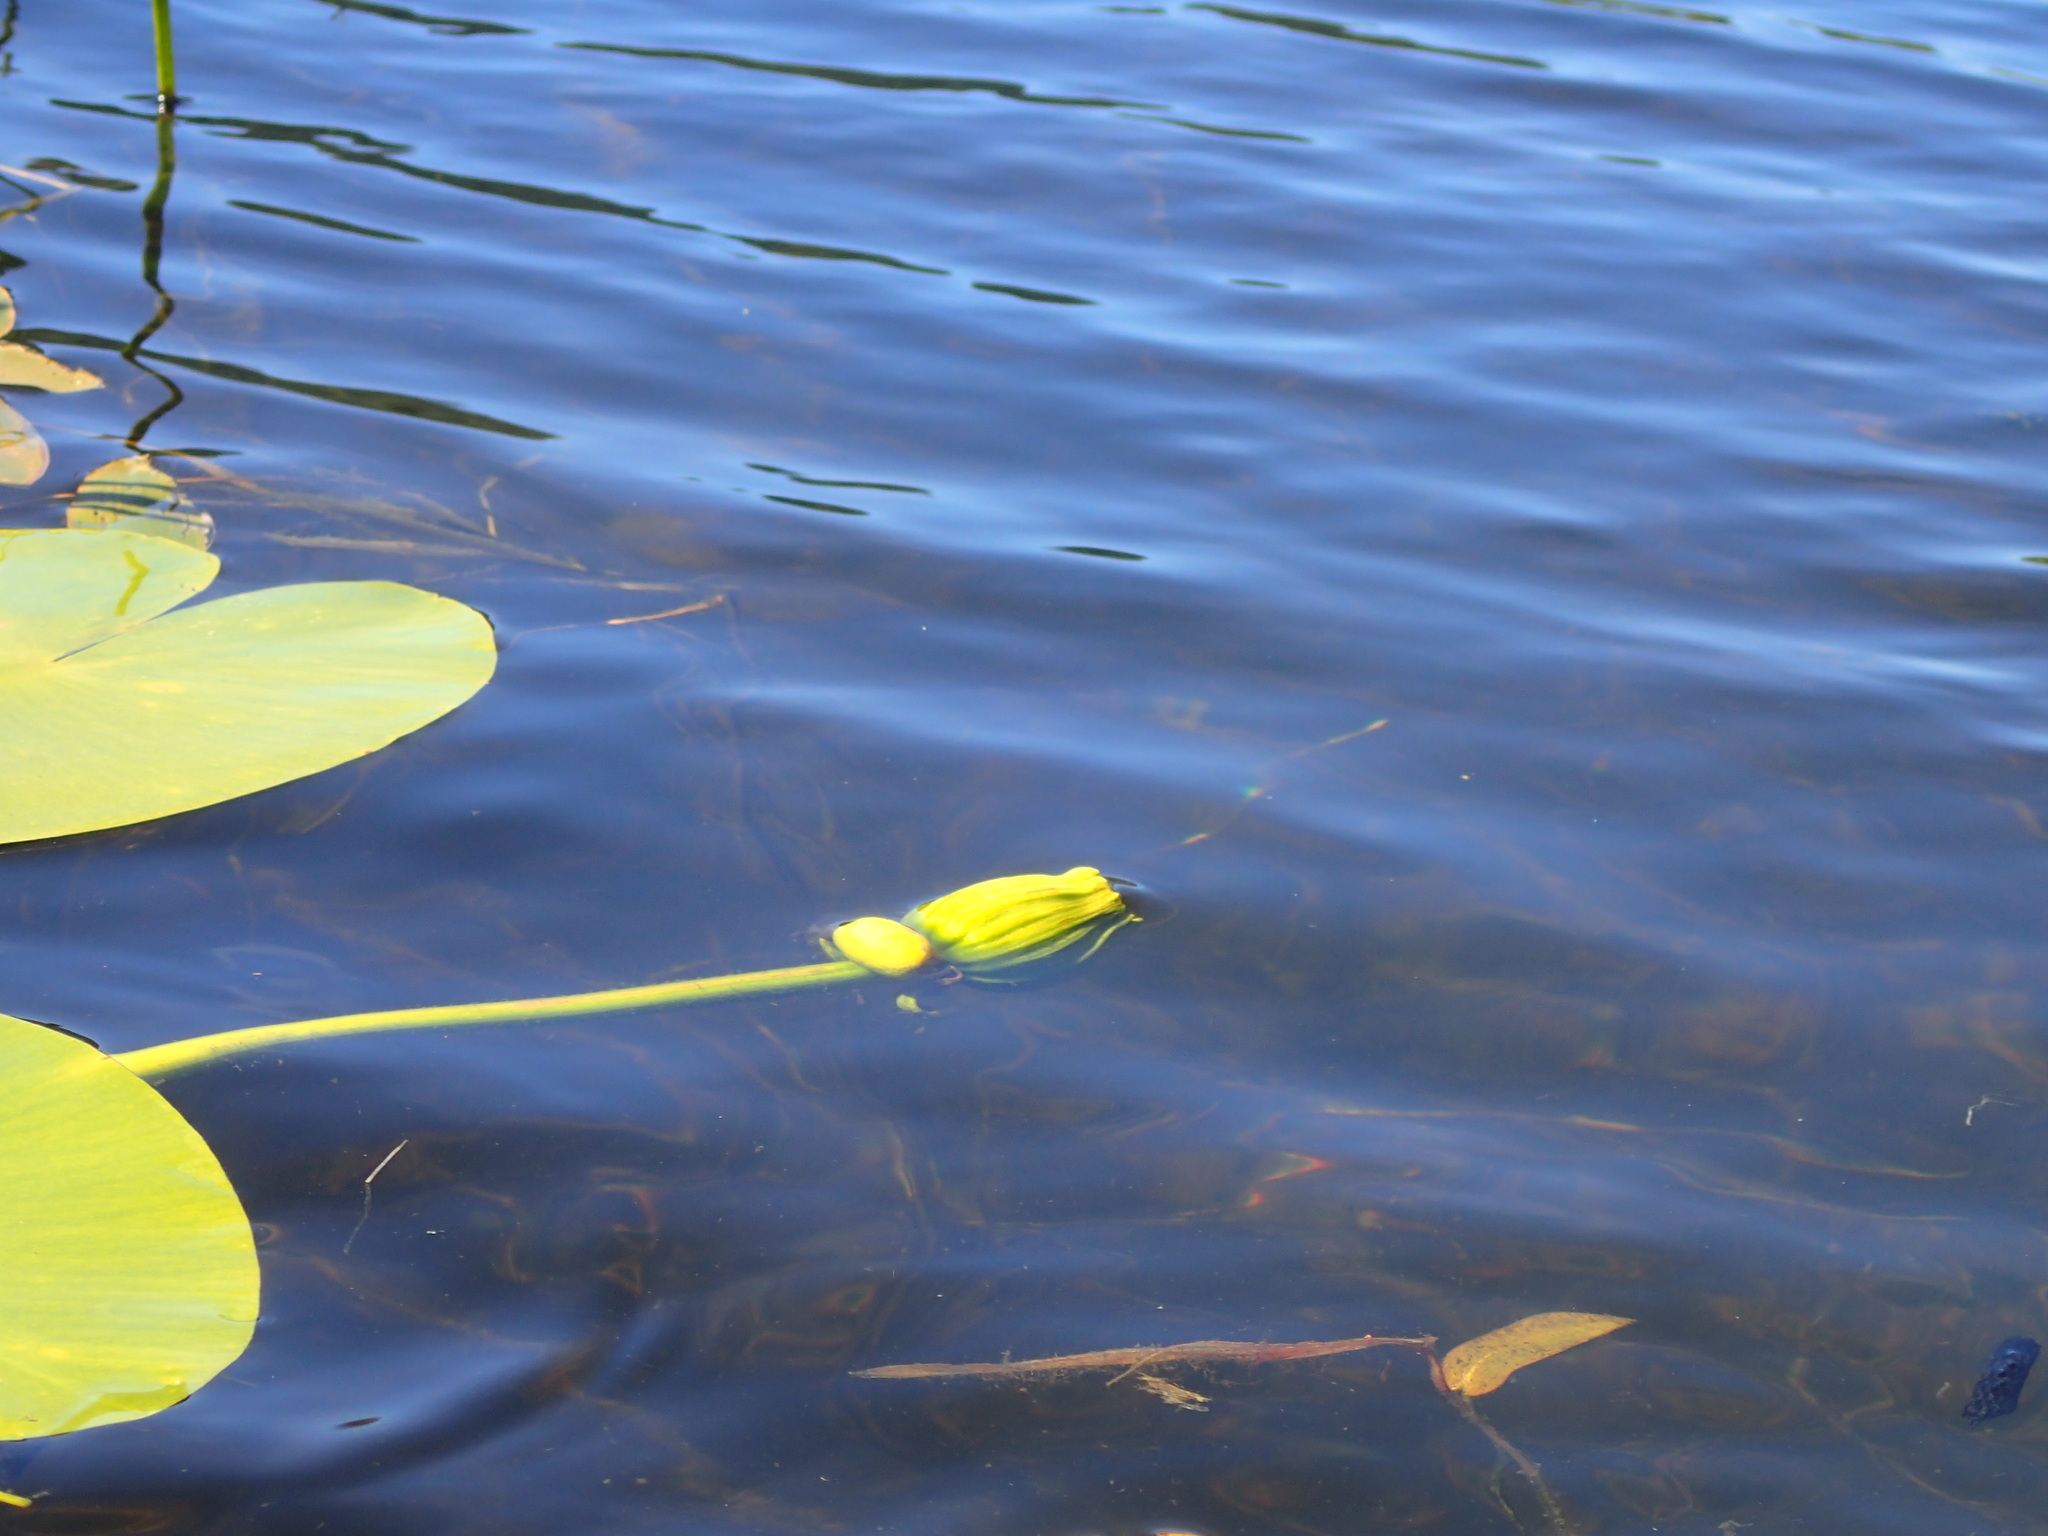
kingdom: Plantae
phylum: Tracheophyta
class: Magnoliopsida
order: Nymphaeales
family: Nymphaeaceae
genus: Nuphar
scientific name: Nuphar variegata
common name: Beaver-root
